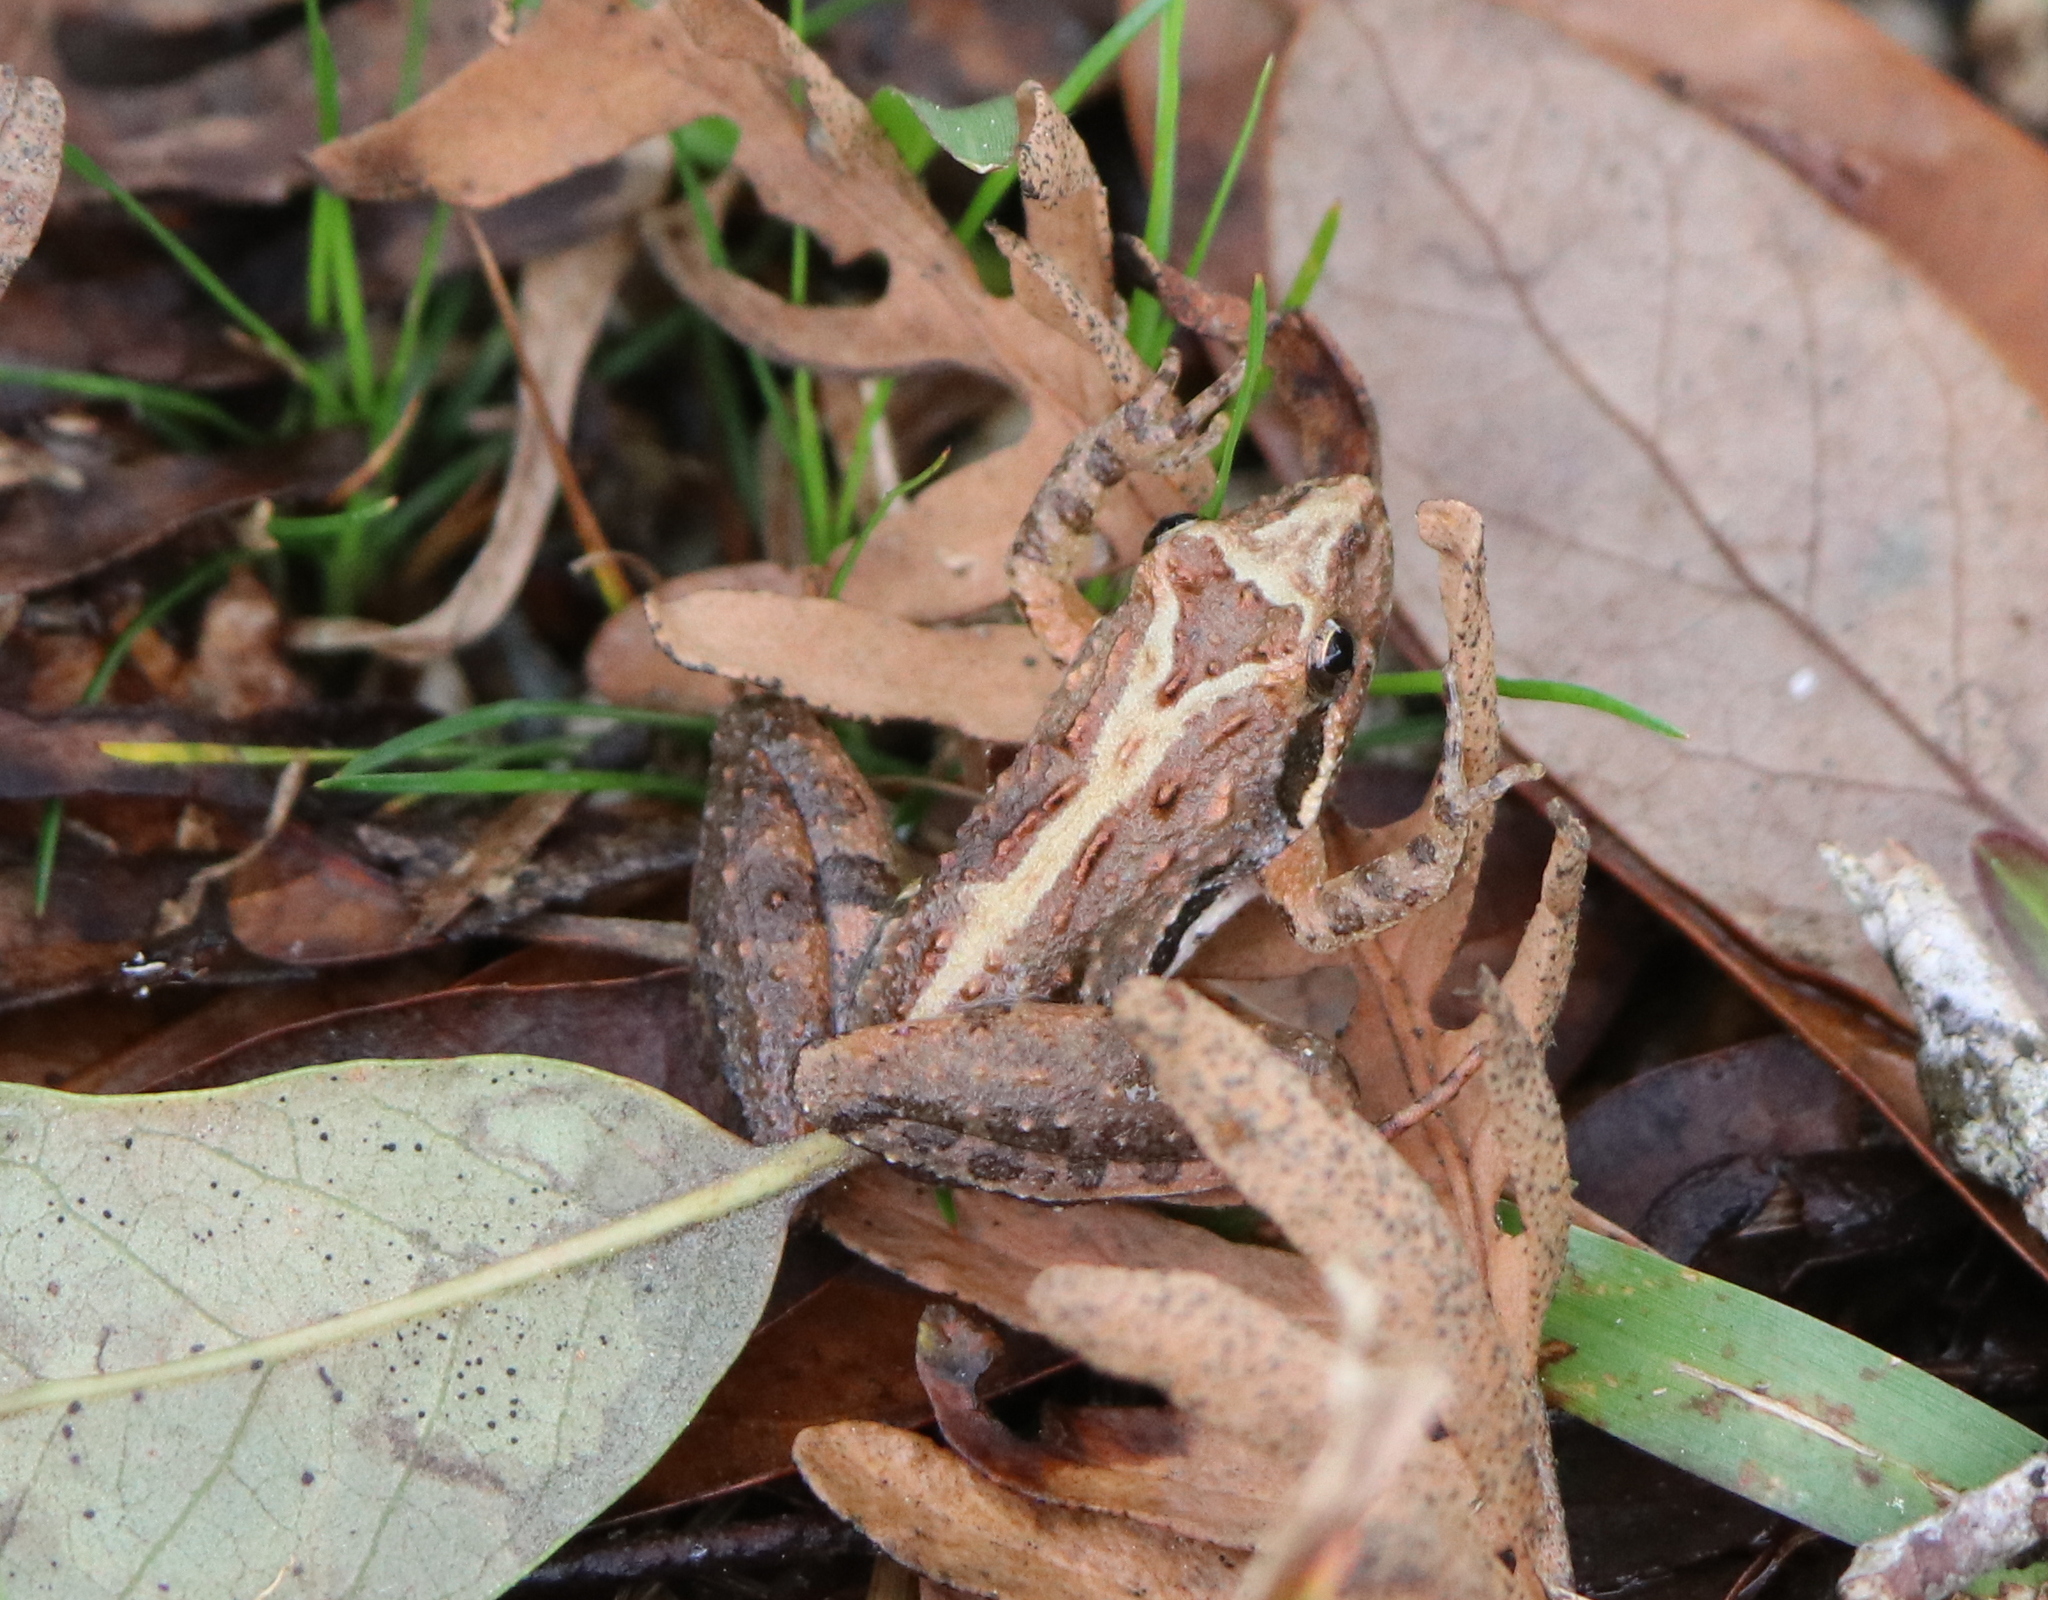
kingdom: Animalia
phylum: Chordata
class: Amphibia
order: Anura
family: Hylidae
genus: Acris
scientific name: Acris gryllus
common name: Southern cricket frog
